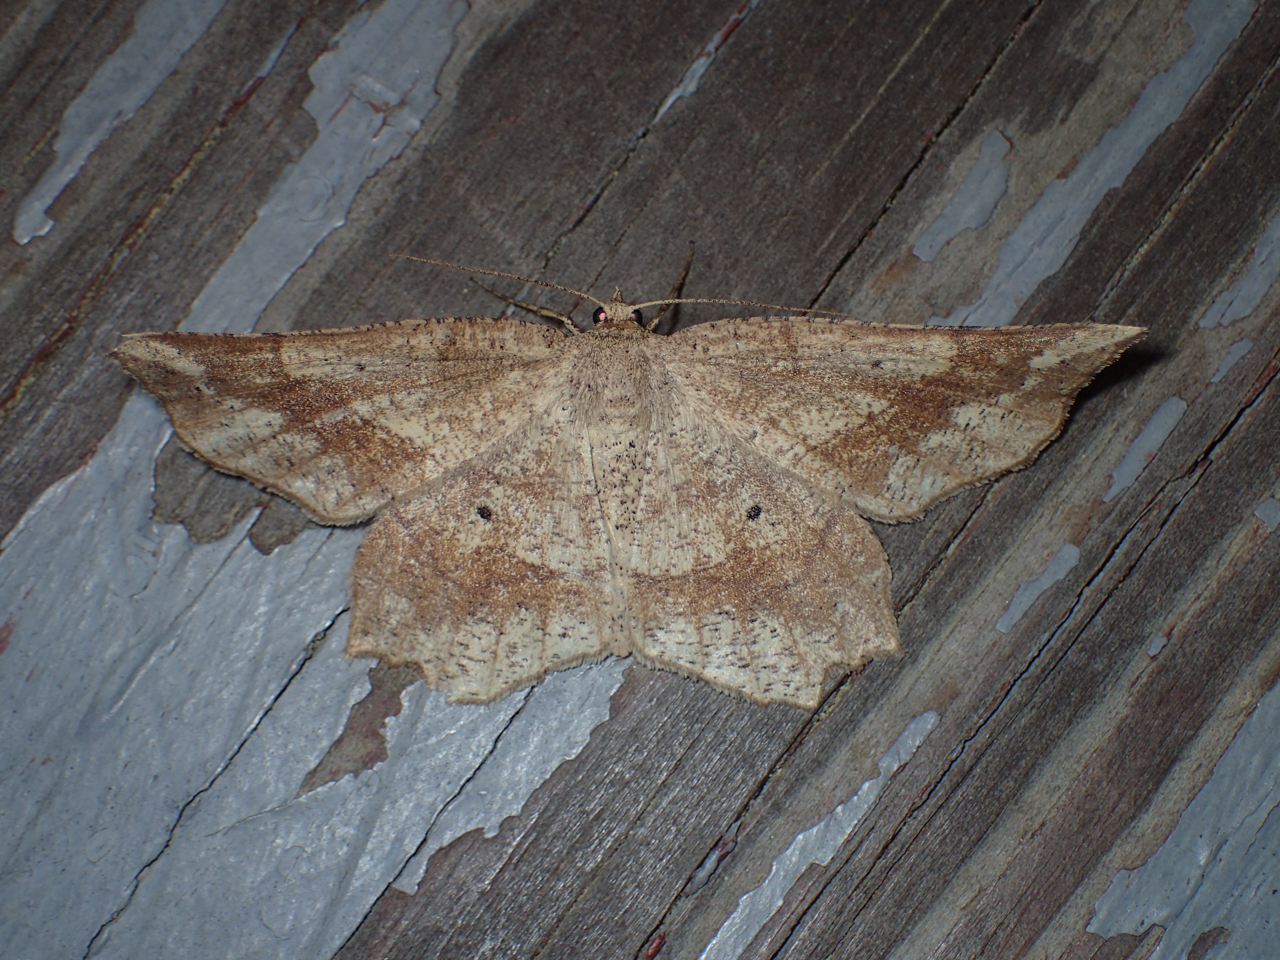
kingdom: Animalia
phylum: Arthropoda
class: Insecta
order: Lepidoptera
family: Geometridae
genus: Euchlaena
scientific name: Euchlaena marginaria
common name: Ochre euchlaena moth
